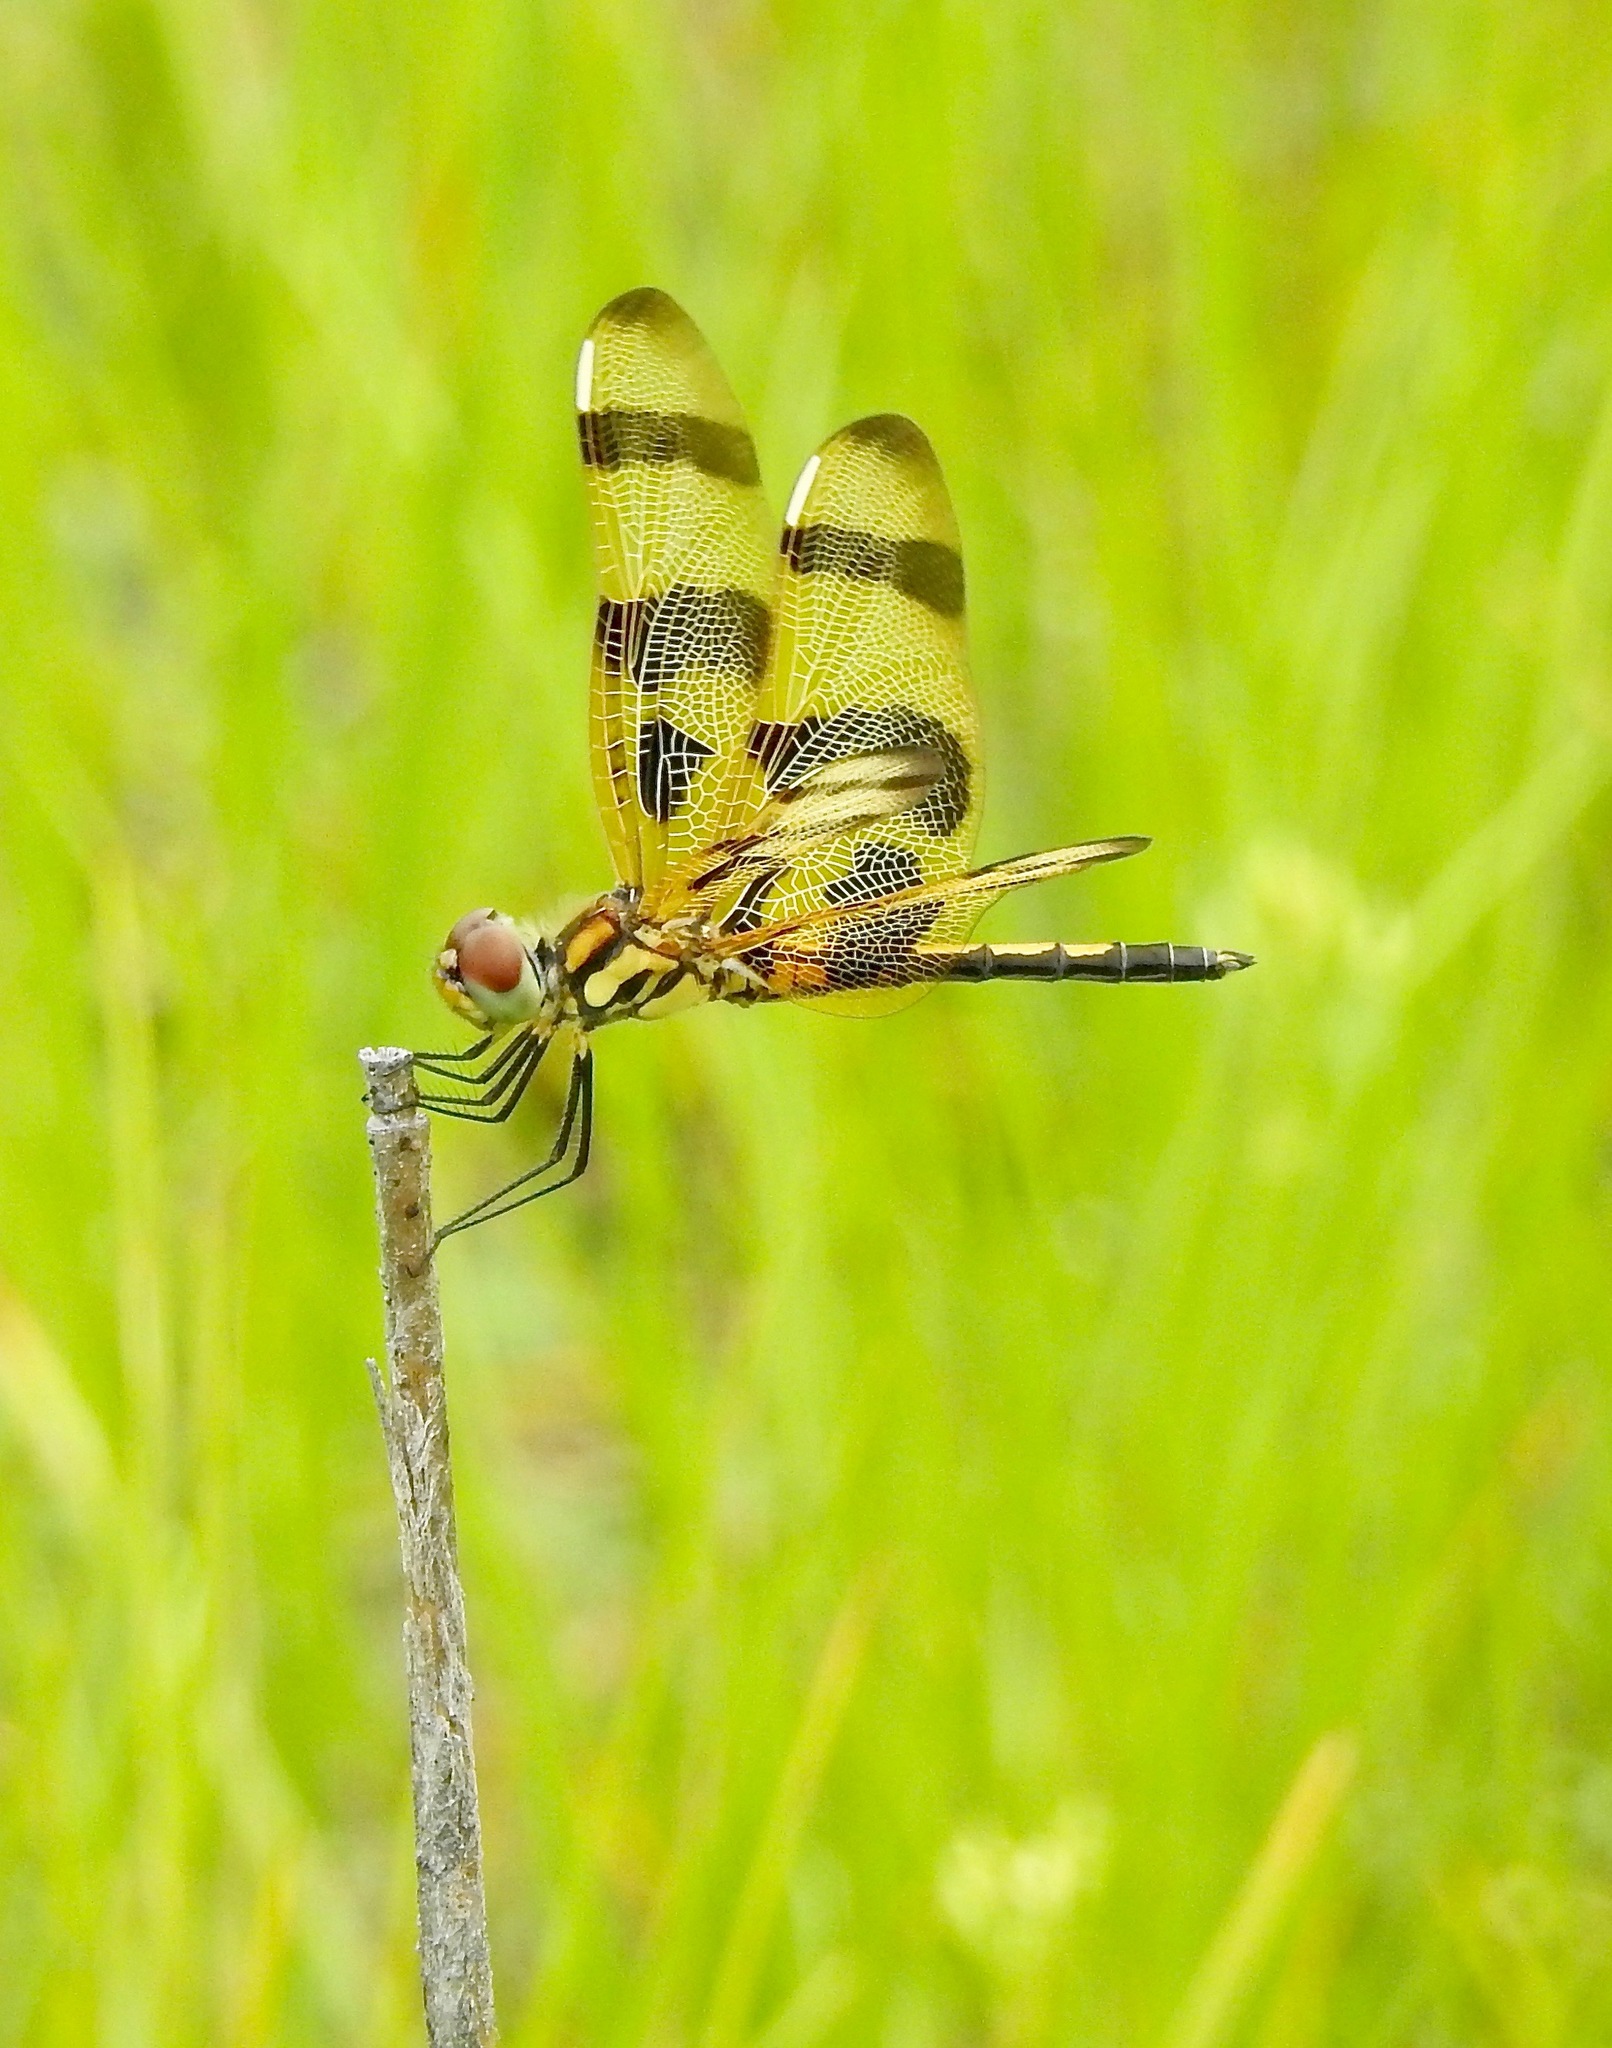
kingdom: Animalia
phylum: Arthropoda
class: Insecta
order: Odonata
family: Libellulidae
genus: Celithemis
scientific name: Celithemis eponina
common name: Halloween pennant
